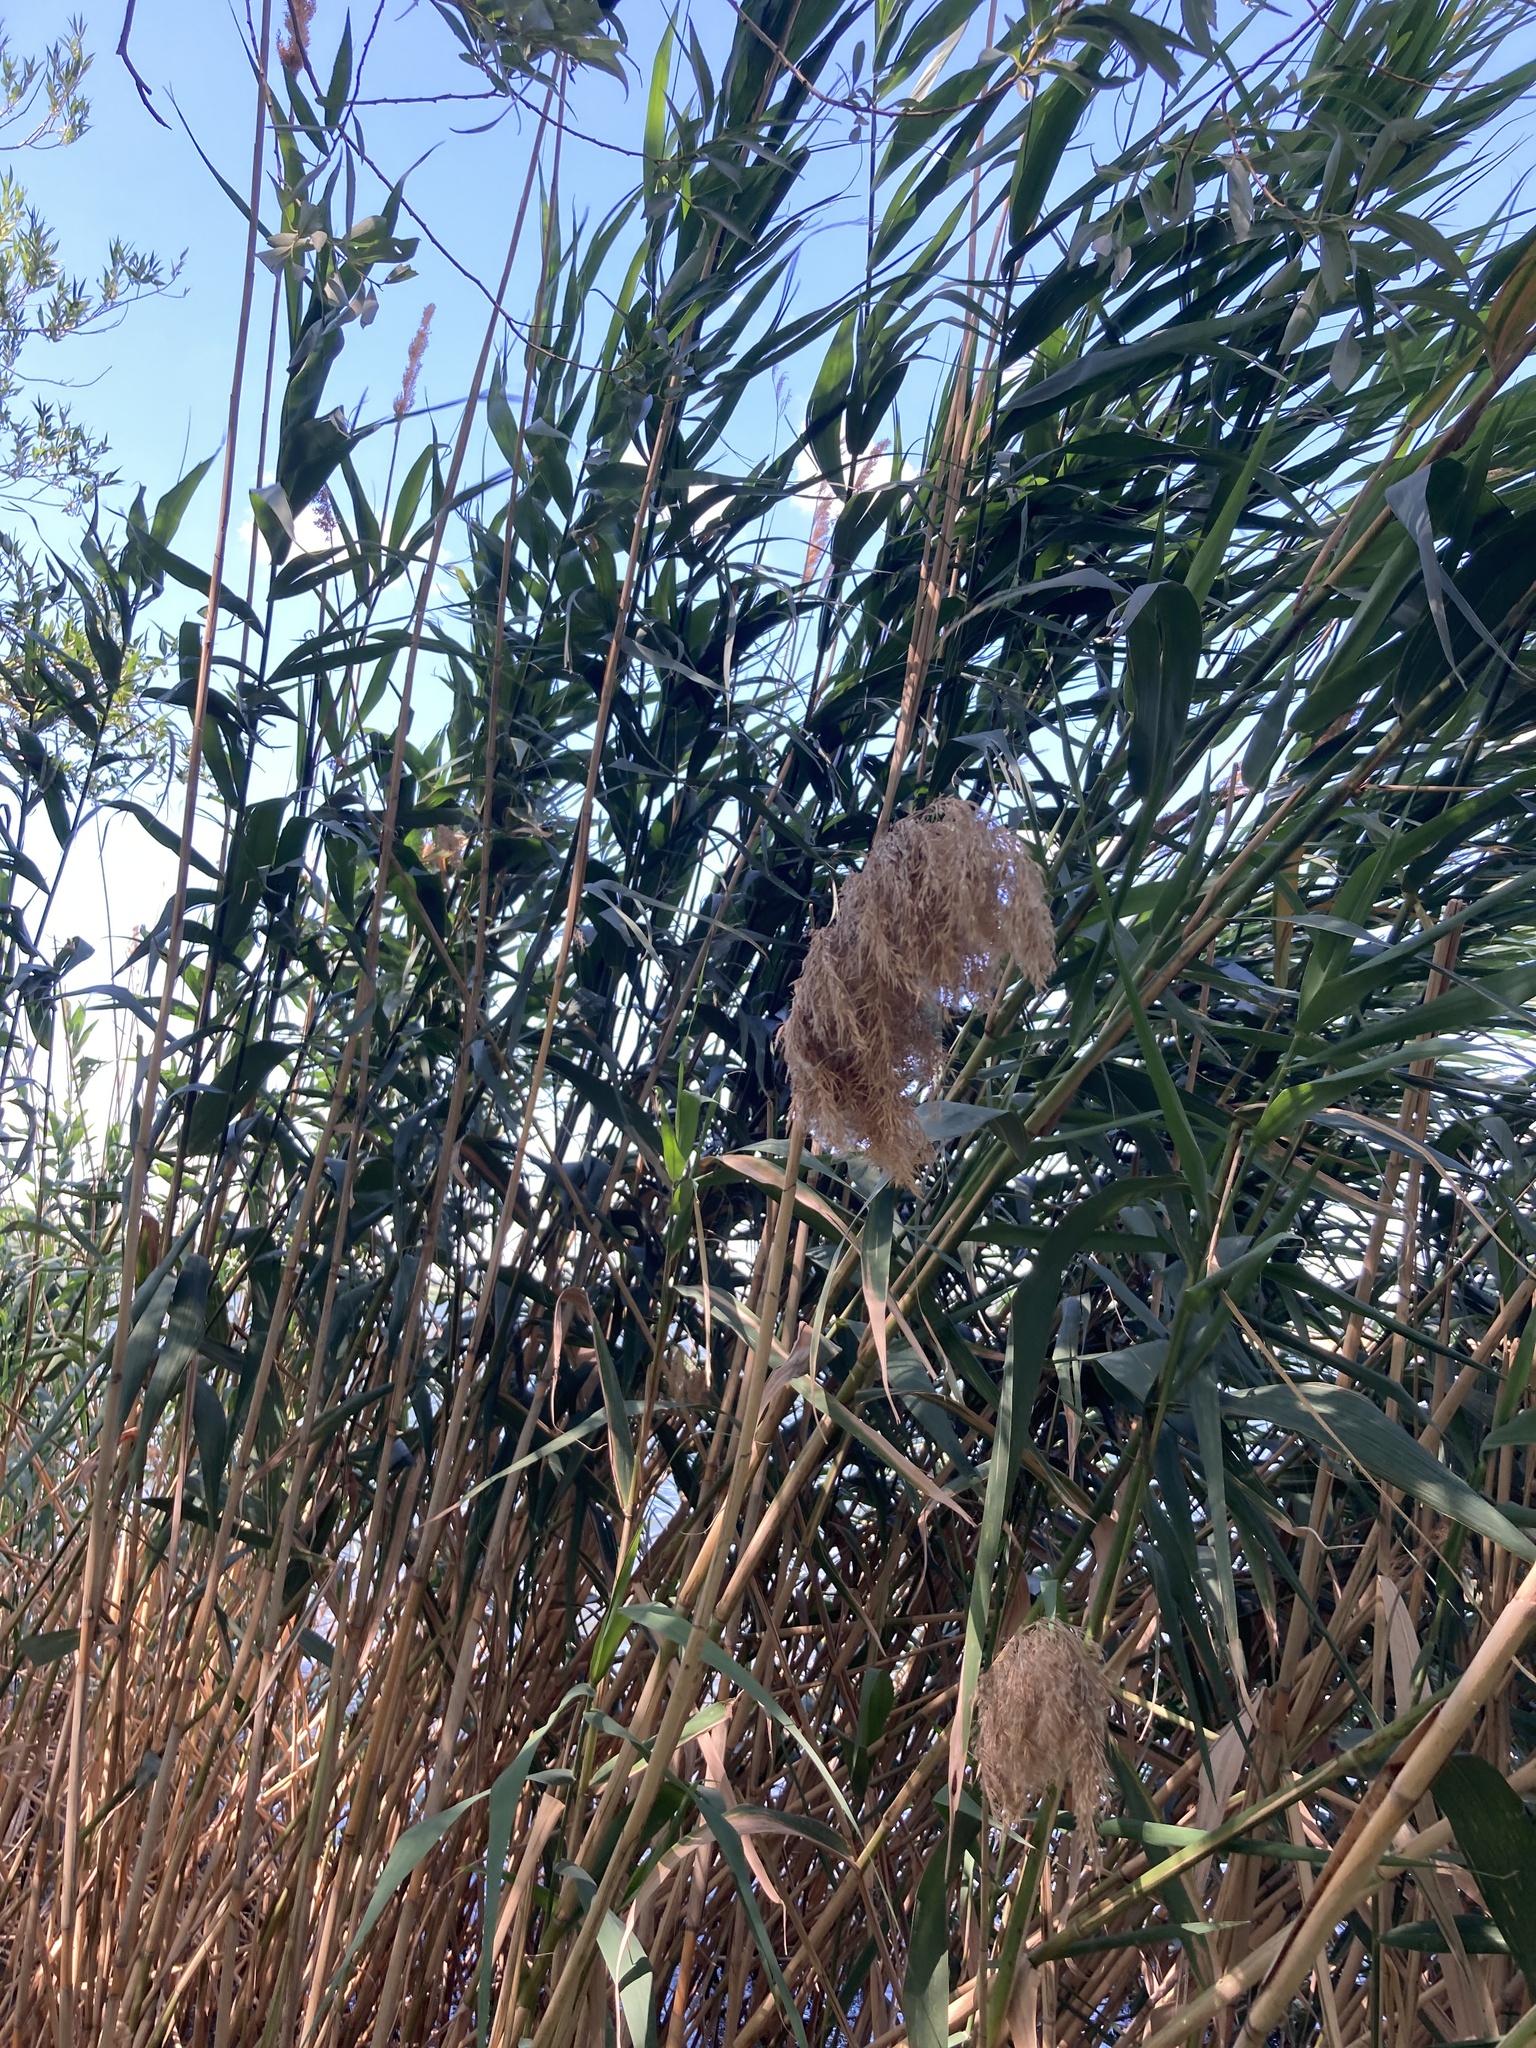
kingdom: Plantae
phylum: Tracheophyta
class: Liliopsida
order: Poales
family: Poaceae
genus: Phragmites
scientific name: Phragmites australis
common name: Common reed
